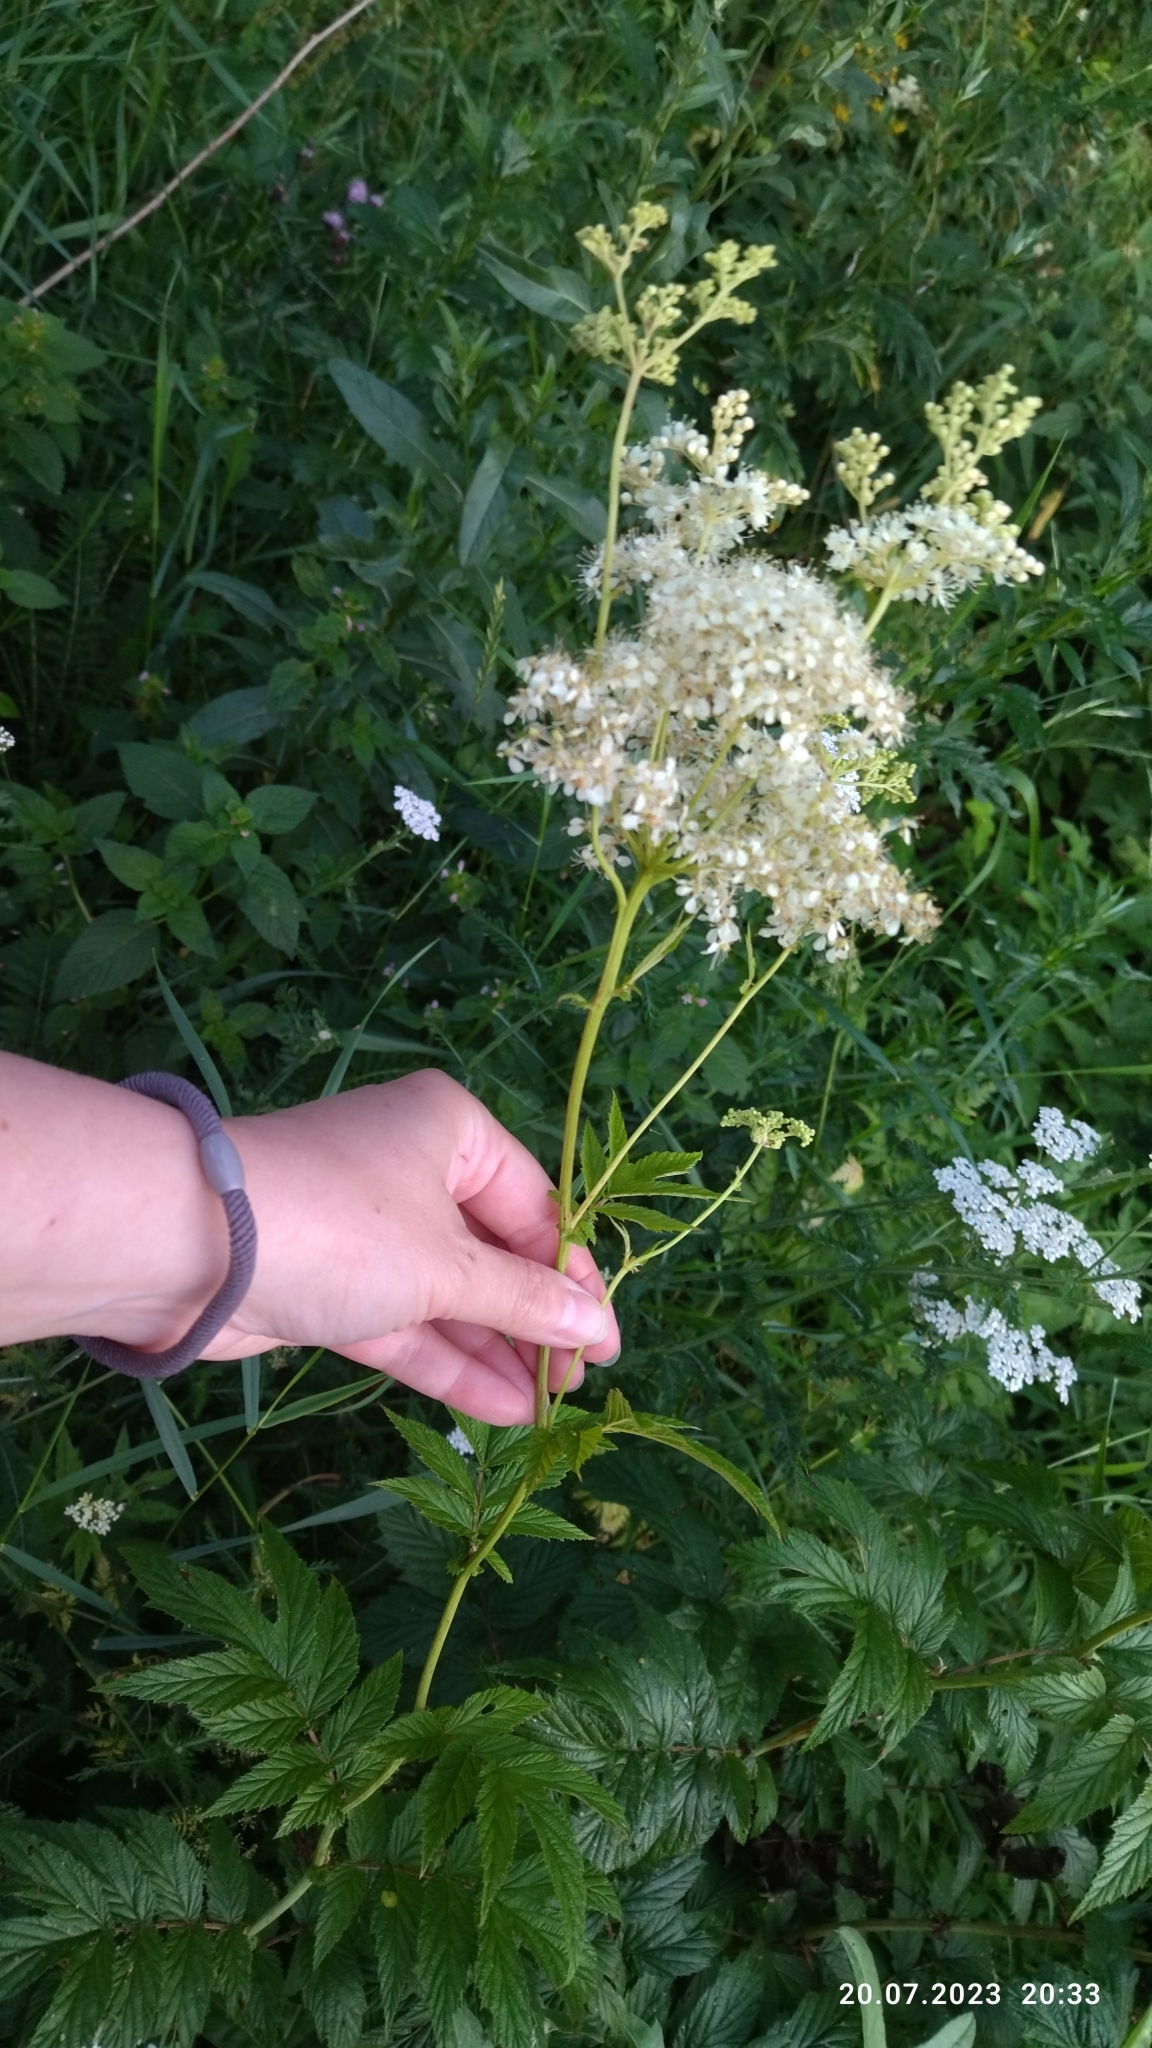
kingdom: Plantae
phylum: Tracheophyta
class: Magnoliopsida
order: Rosales
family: Rosaceae
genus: Filipendula
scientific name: Filipendula ulmaria
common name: Meadowsweet
